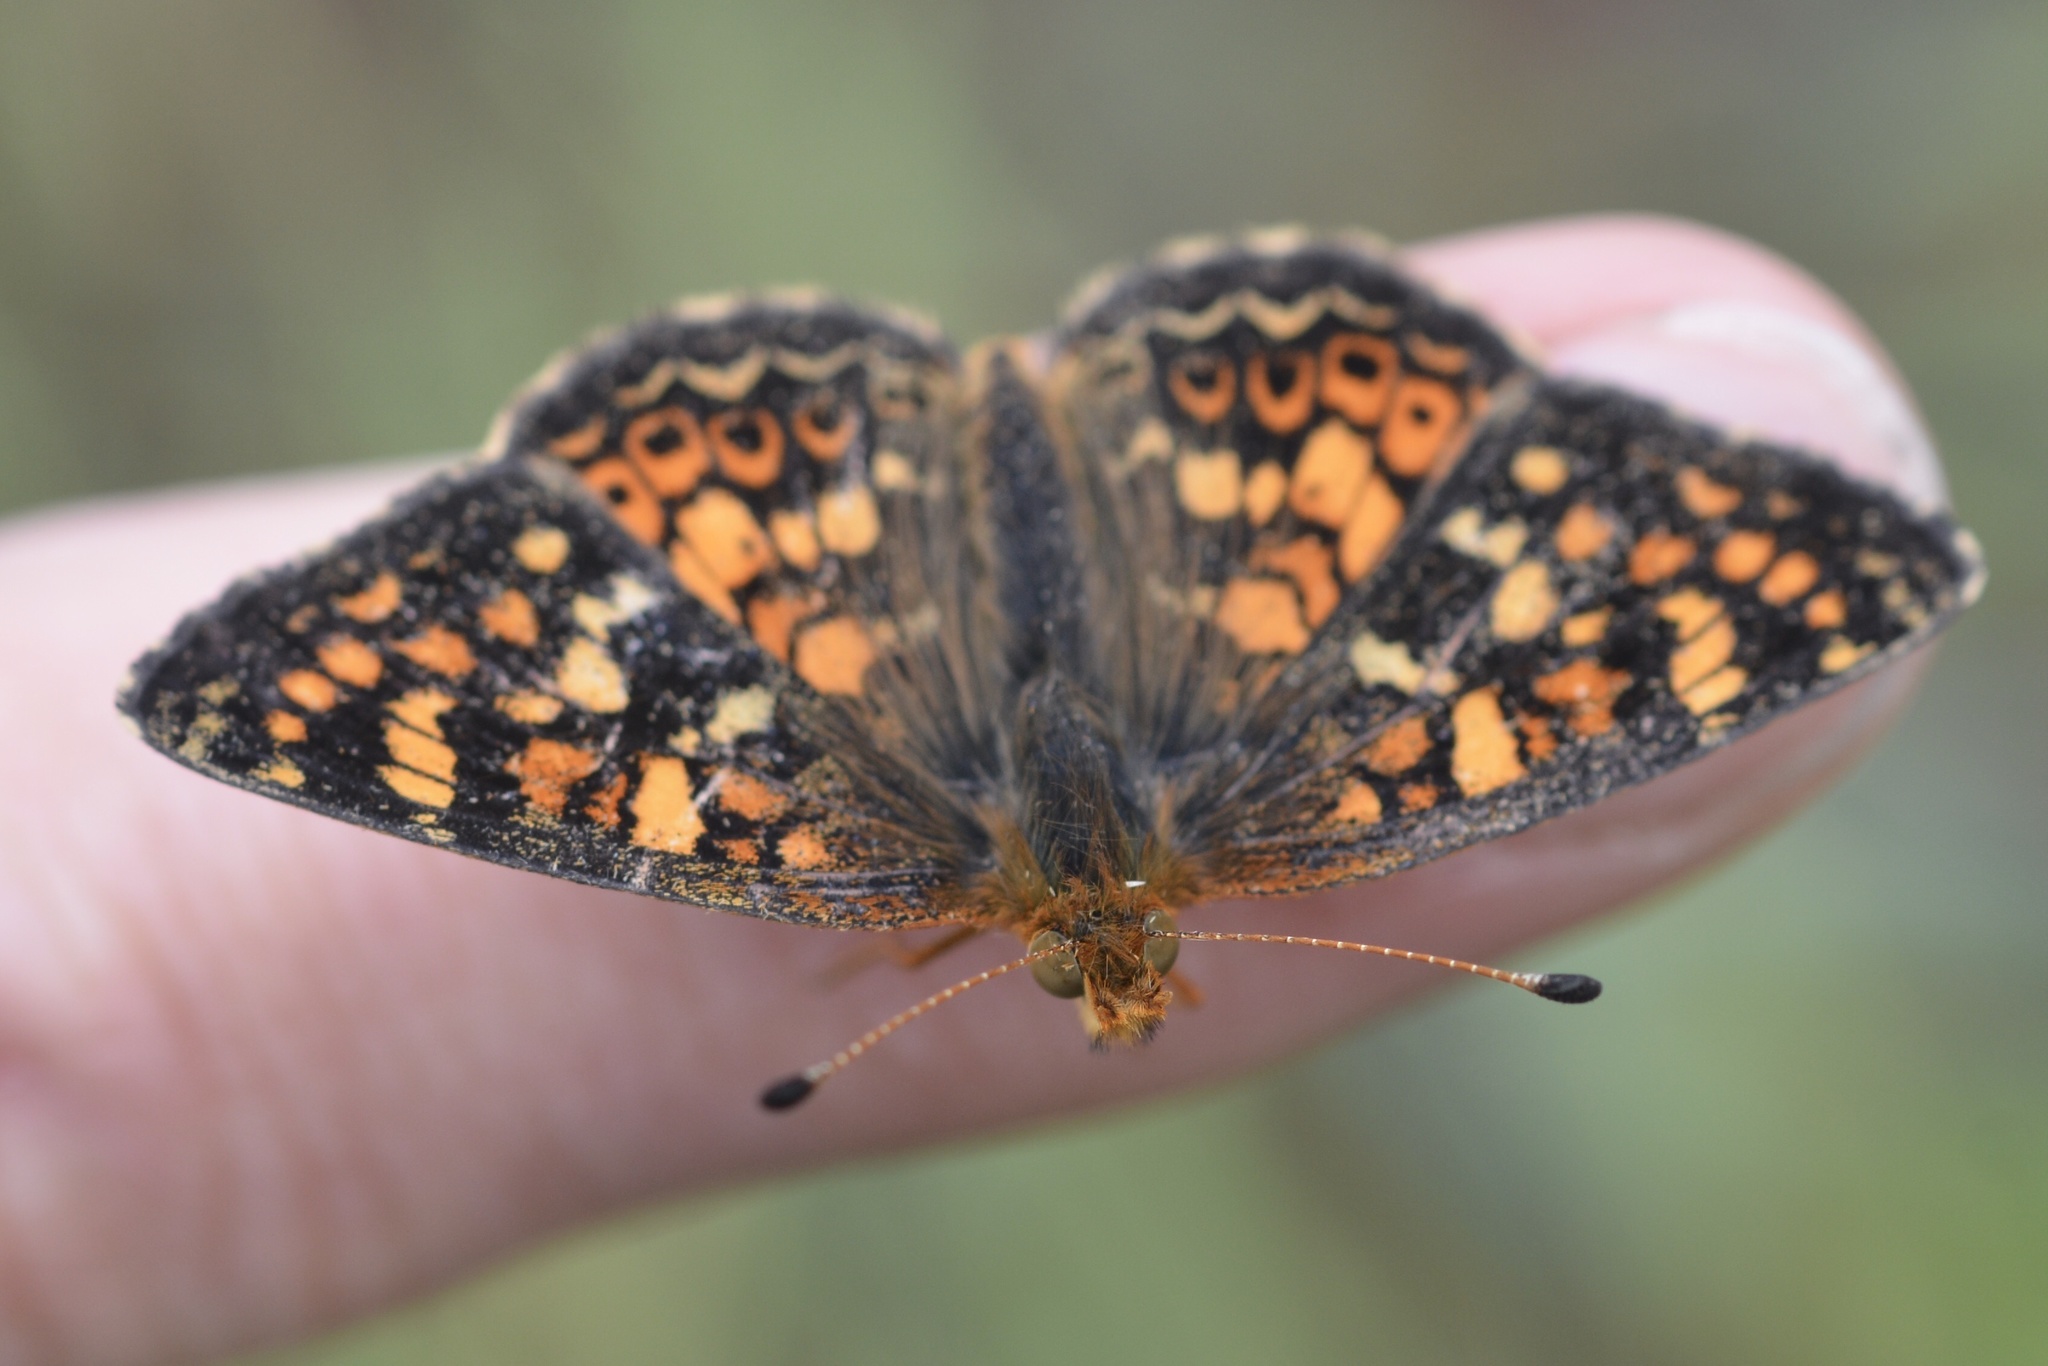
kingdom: Animalia
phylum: Arthropoda
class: Insecta
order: Lepidoptera
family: Nymphalidae
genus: Phyciodes
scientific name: Phyciodes tharos
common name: Pearl crescent
